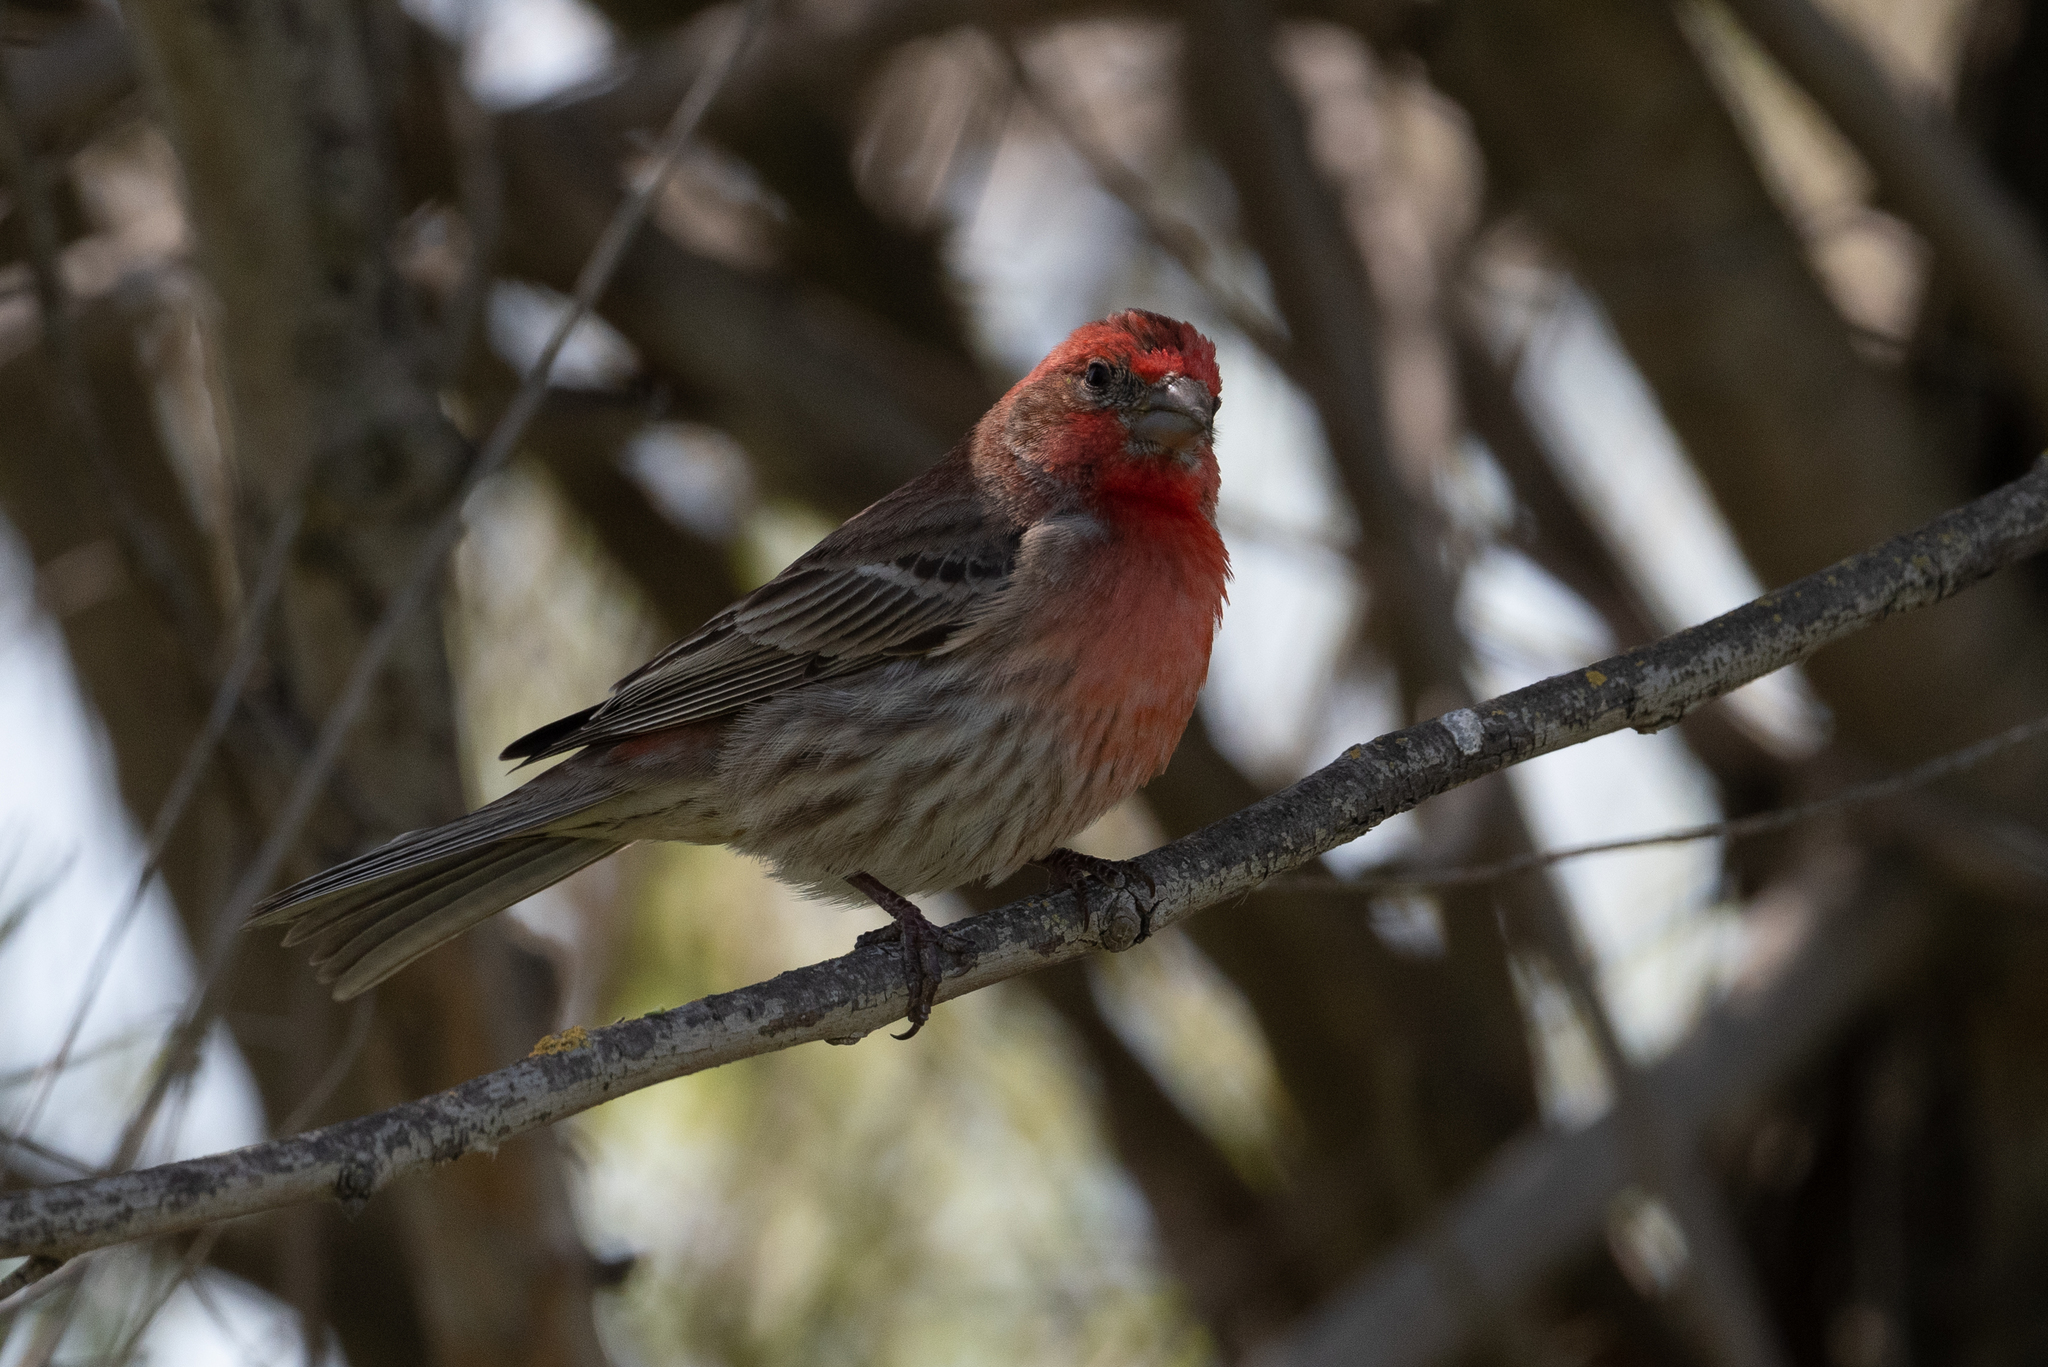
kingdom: Animalia
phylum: Chordata
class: Aves
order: Passeriformes
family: Fringillidae
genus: Haemorhous
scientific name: Haemorhous mexicanus
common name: House finch
